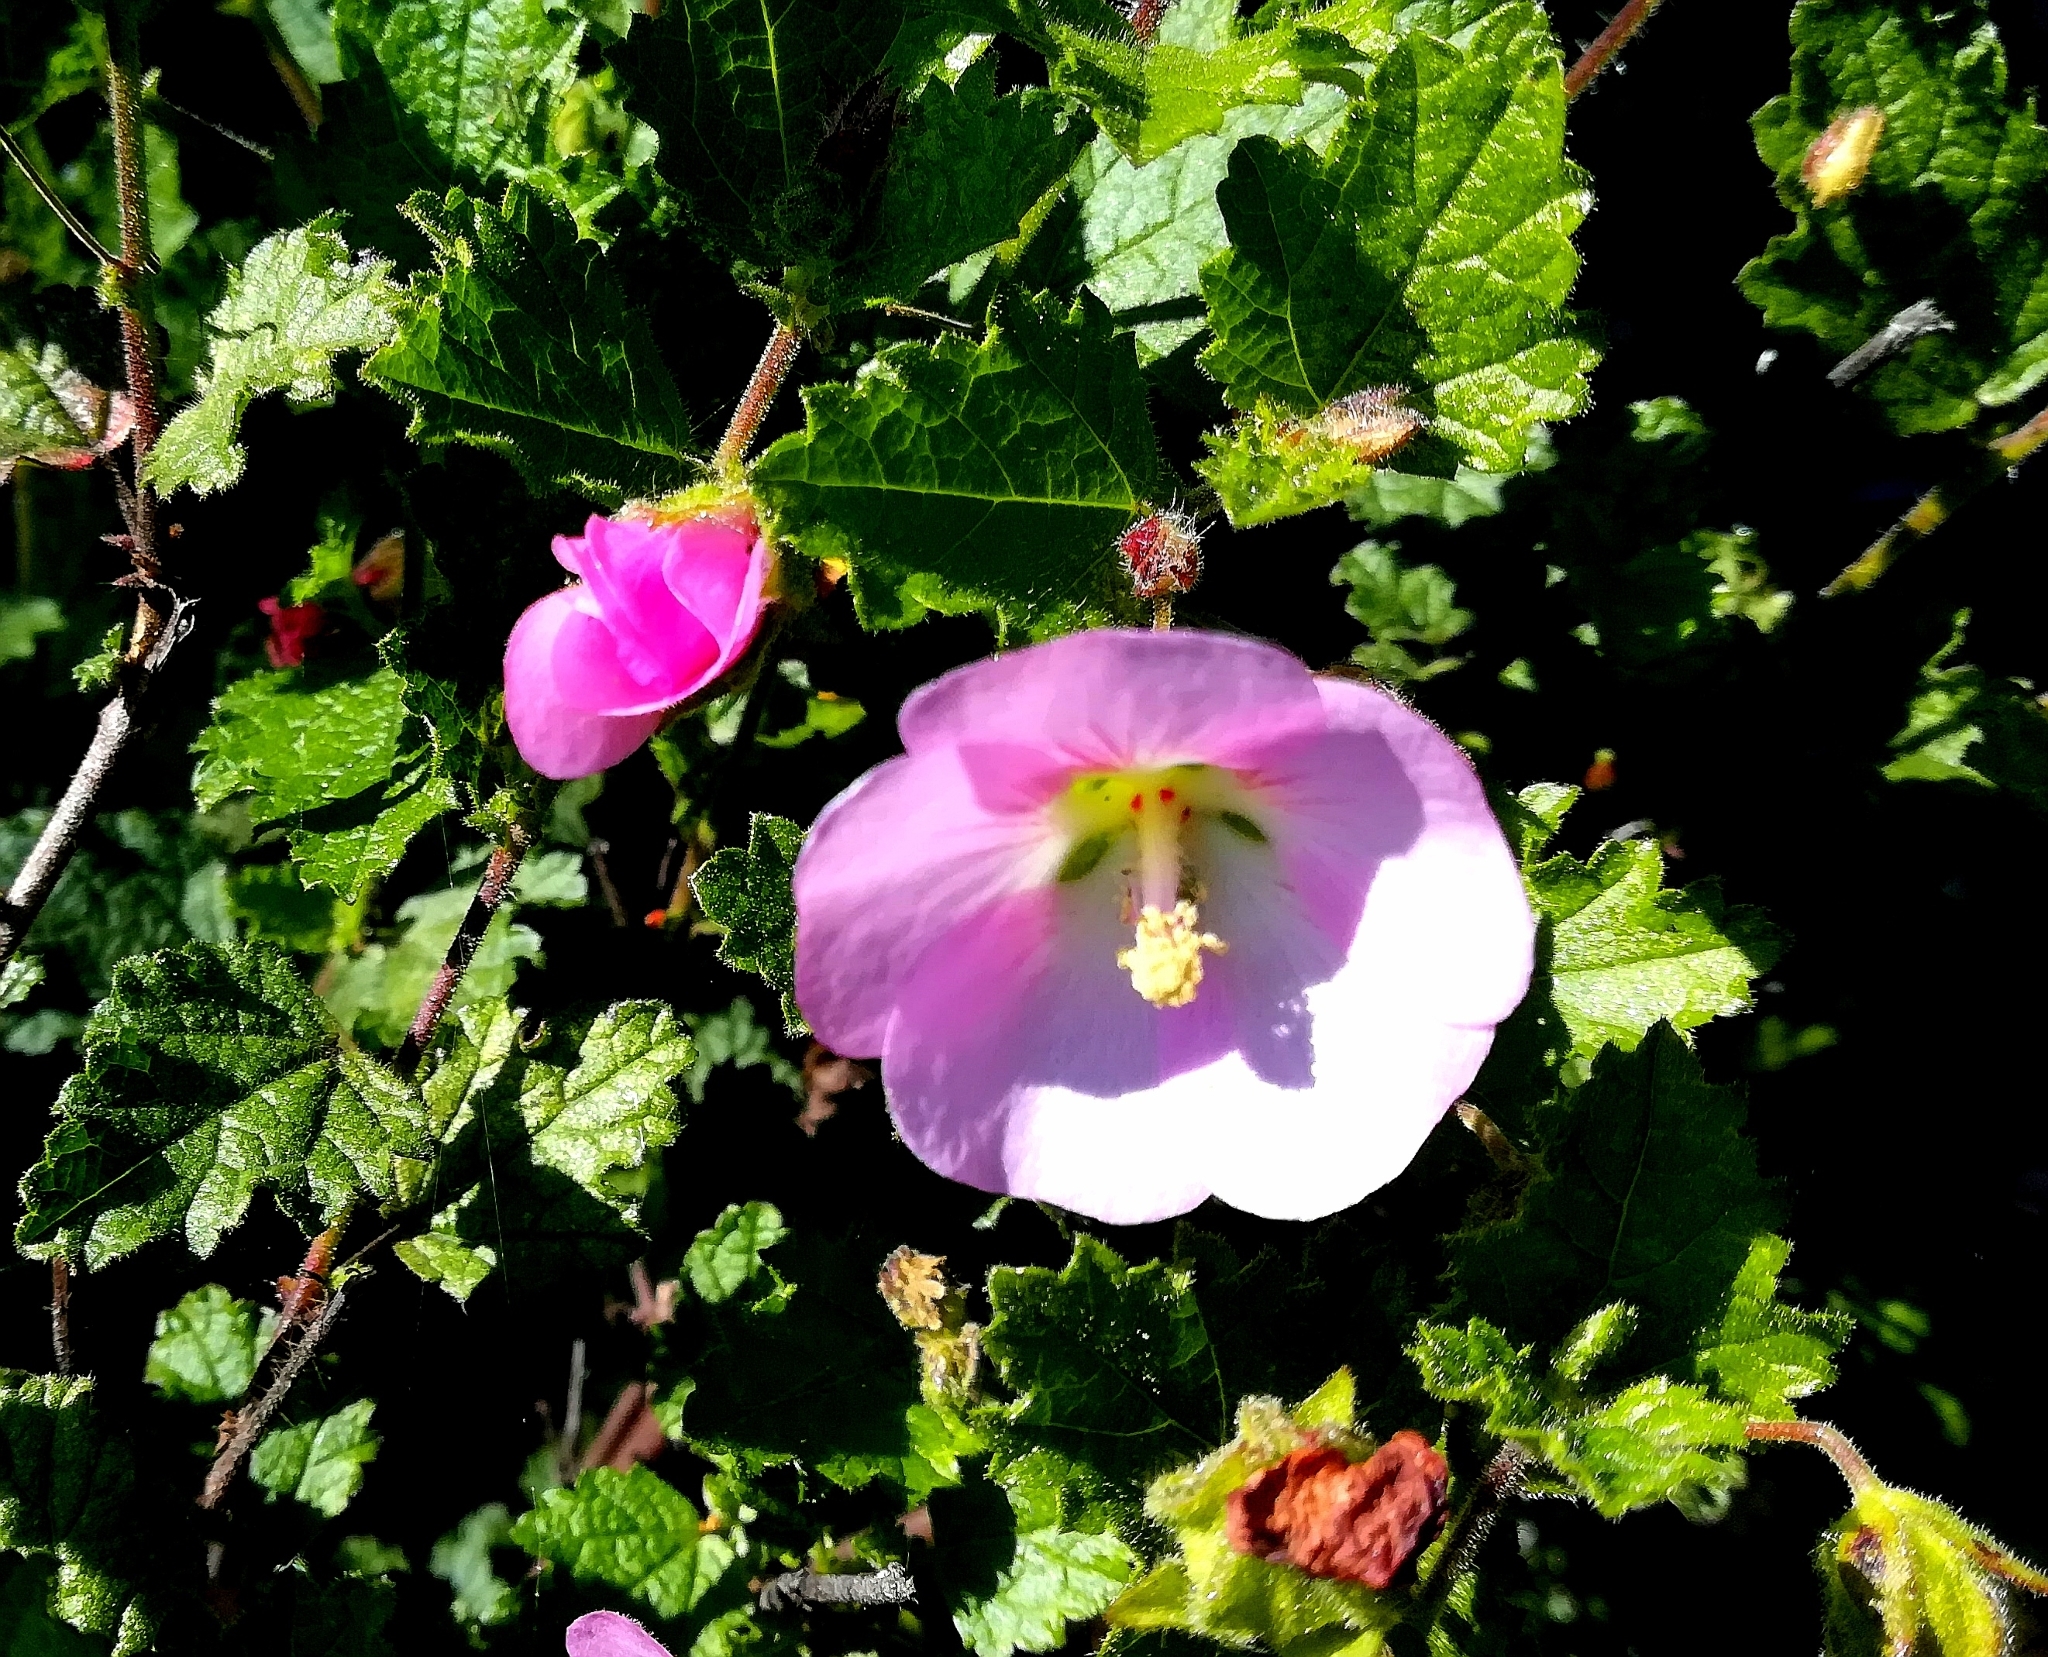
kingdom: Plantae
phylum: Tracheophyta
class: Magnoliopsida
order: Malvales
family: Malvaceae
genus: Anisodontea
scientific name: Anisodontea scabrosa
